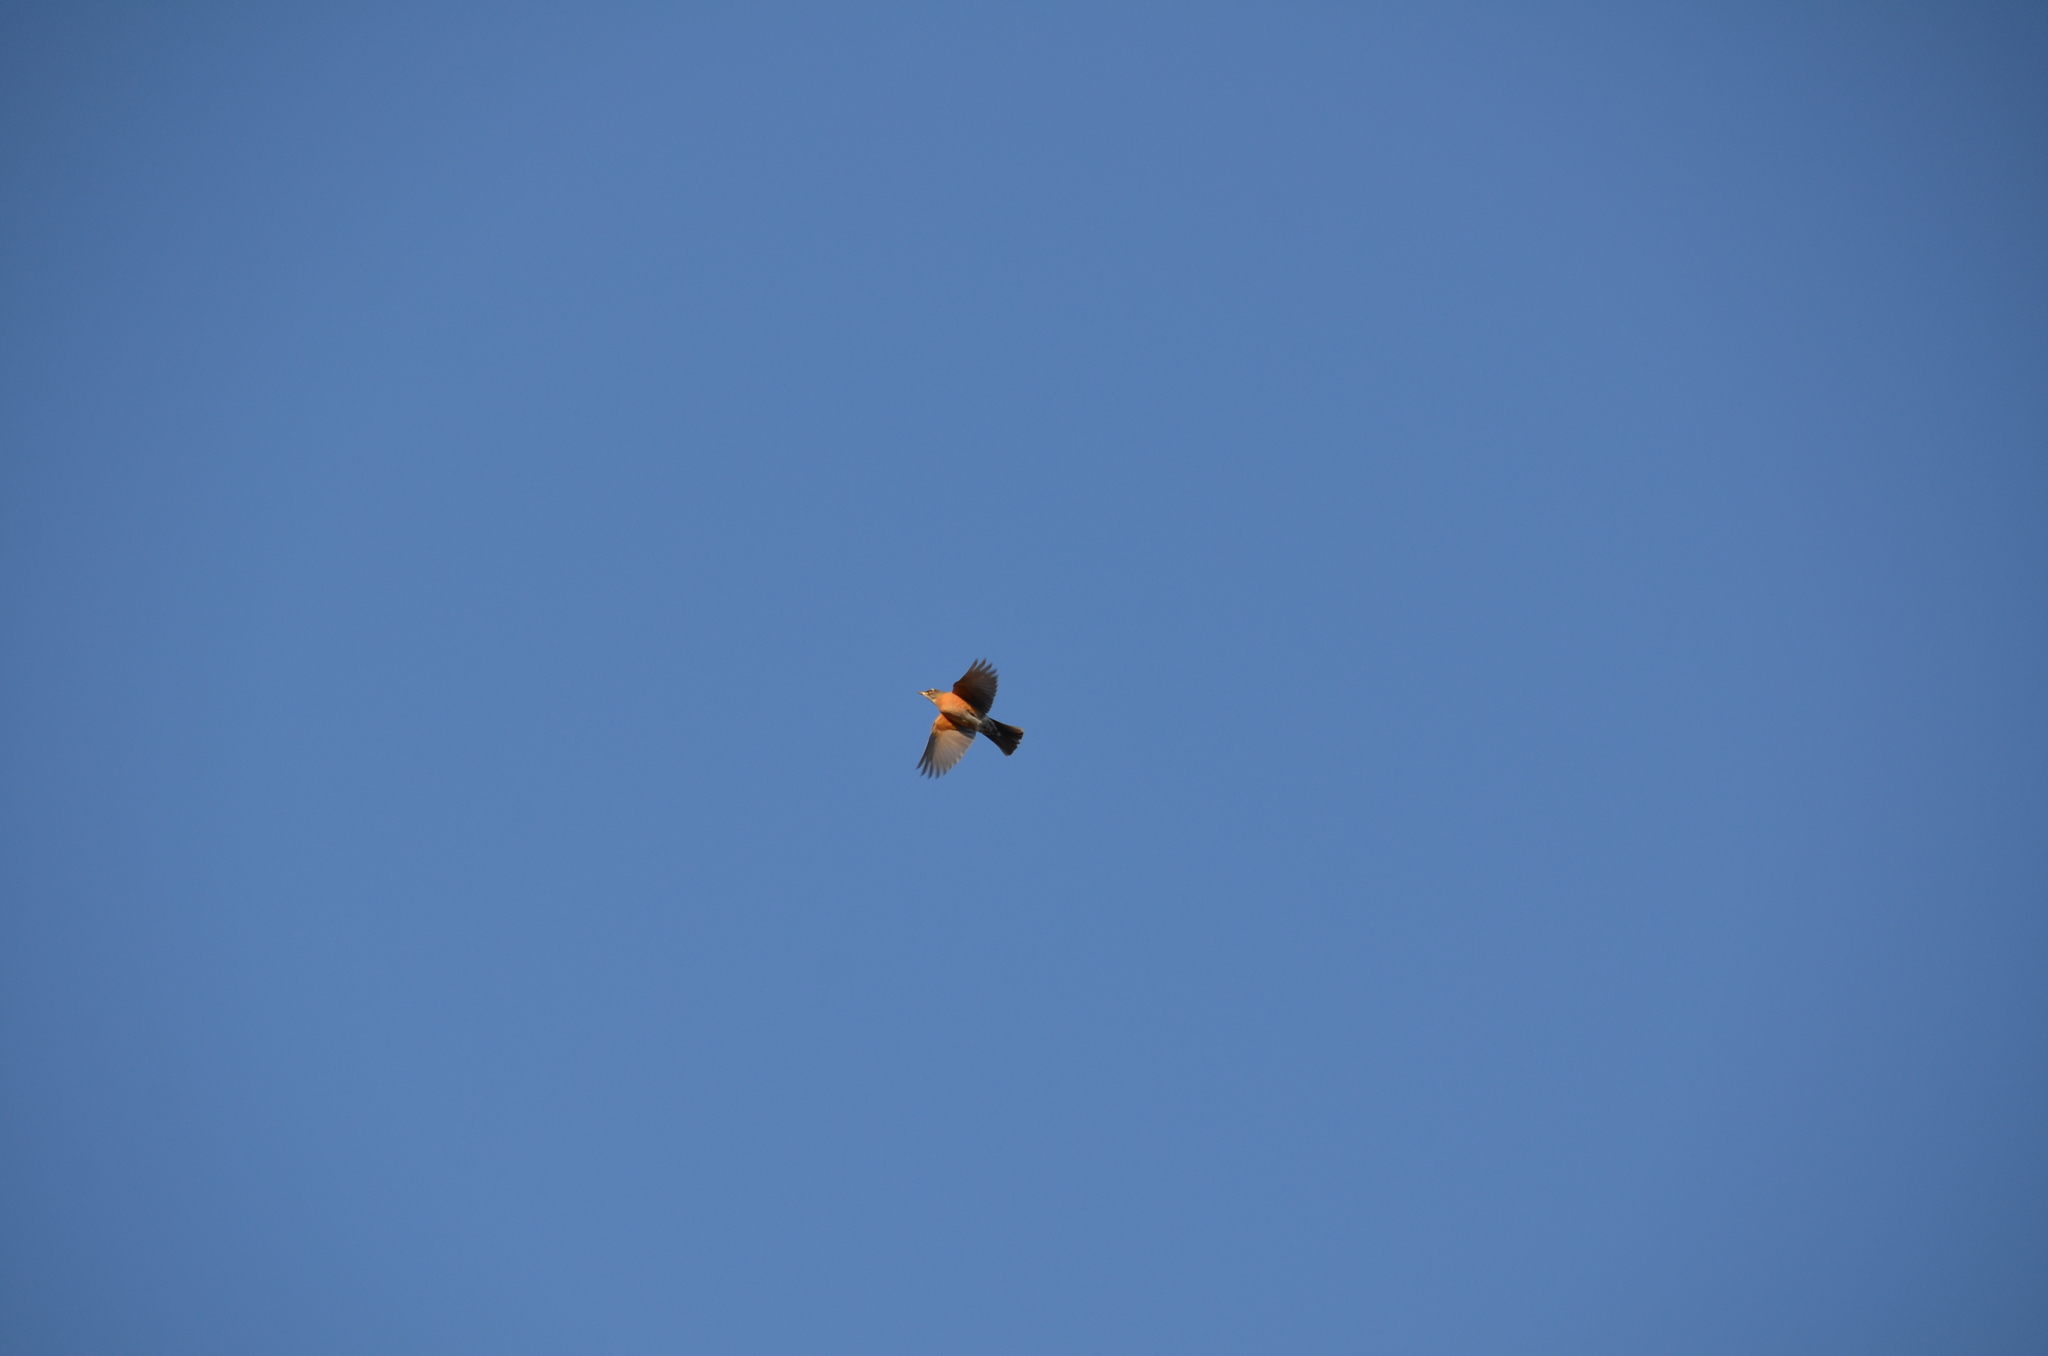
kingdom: Animalia
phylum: Chordata
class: Aves
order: Passeriformes
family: Turdidae
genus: Turdus
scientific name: Turdus migratorius
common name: American robin
